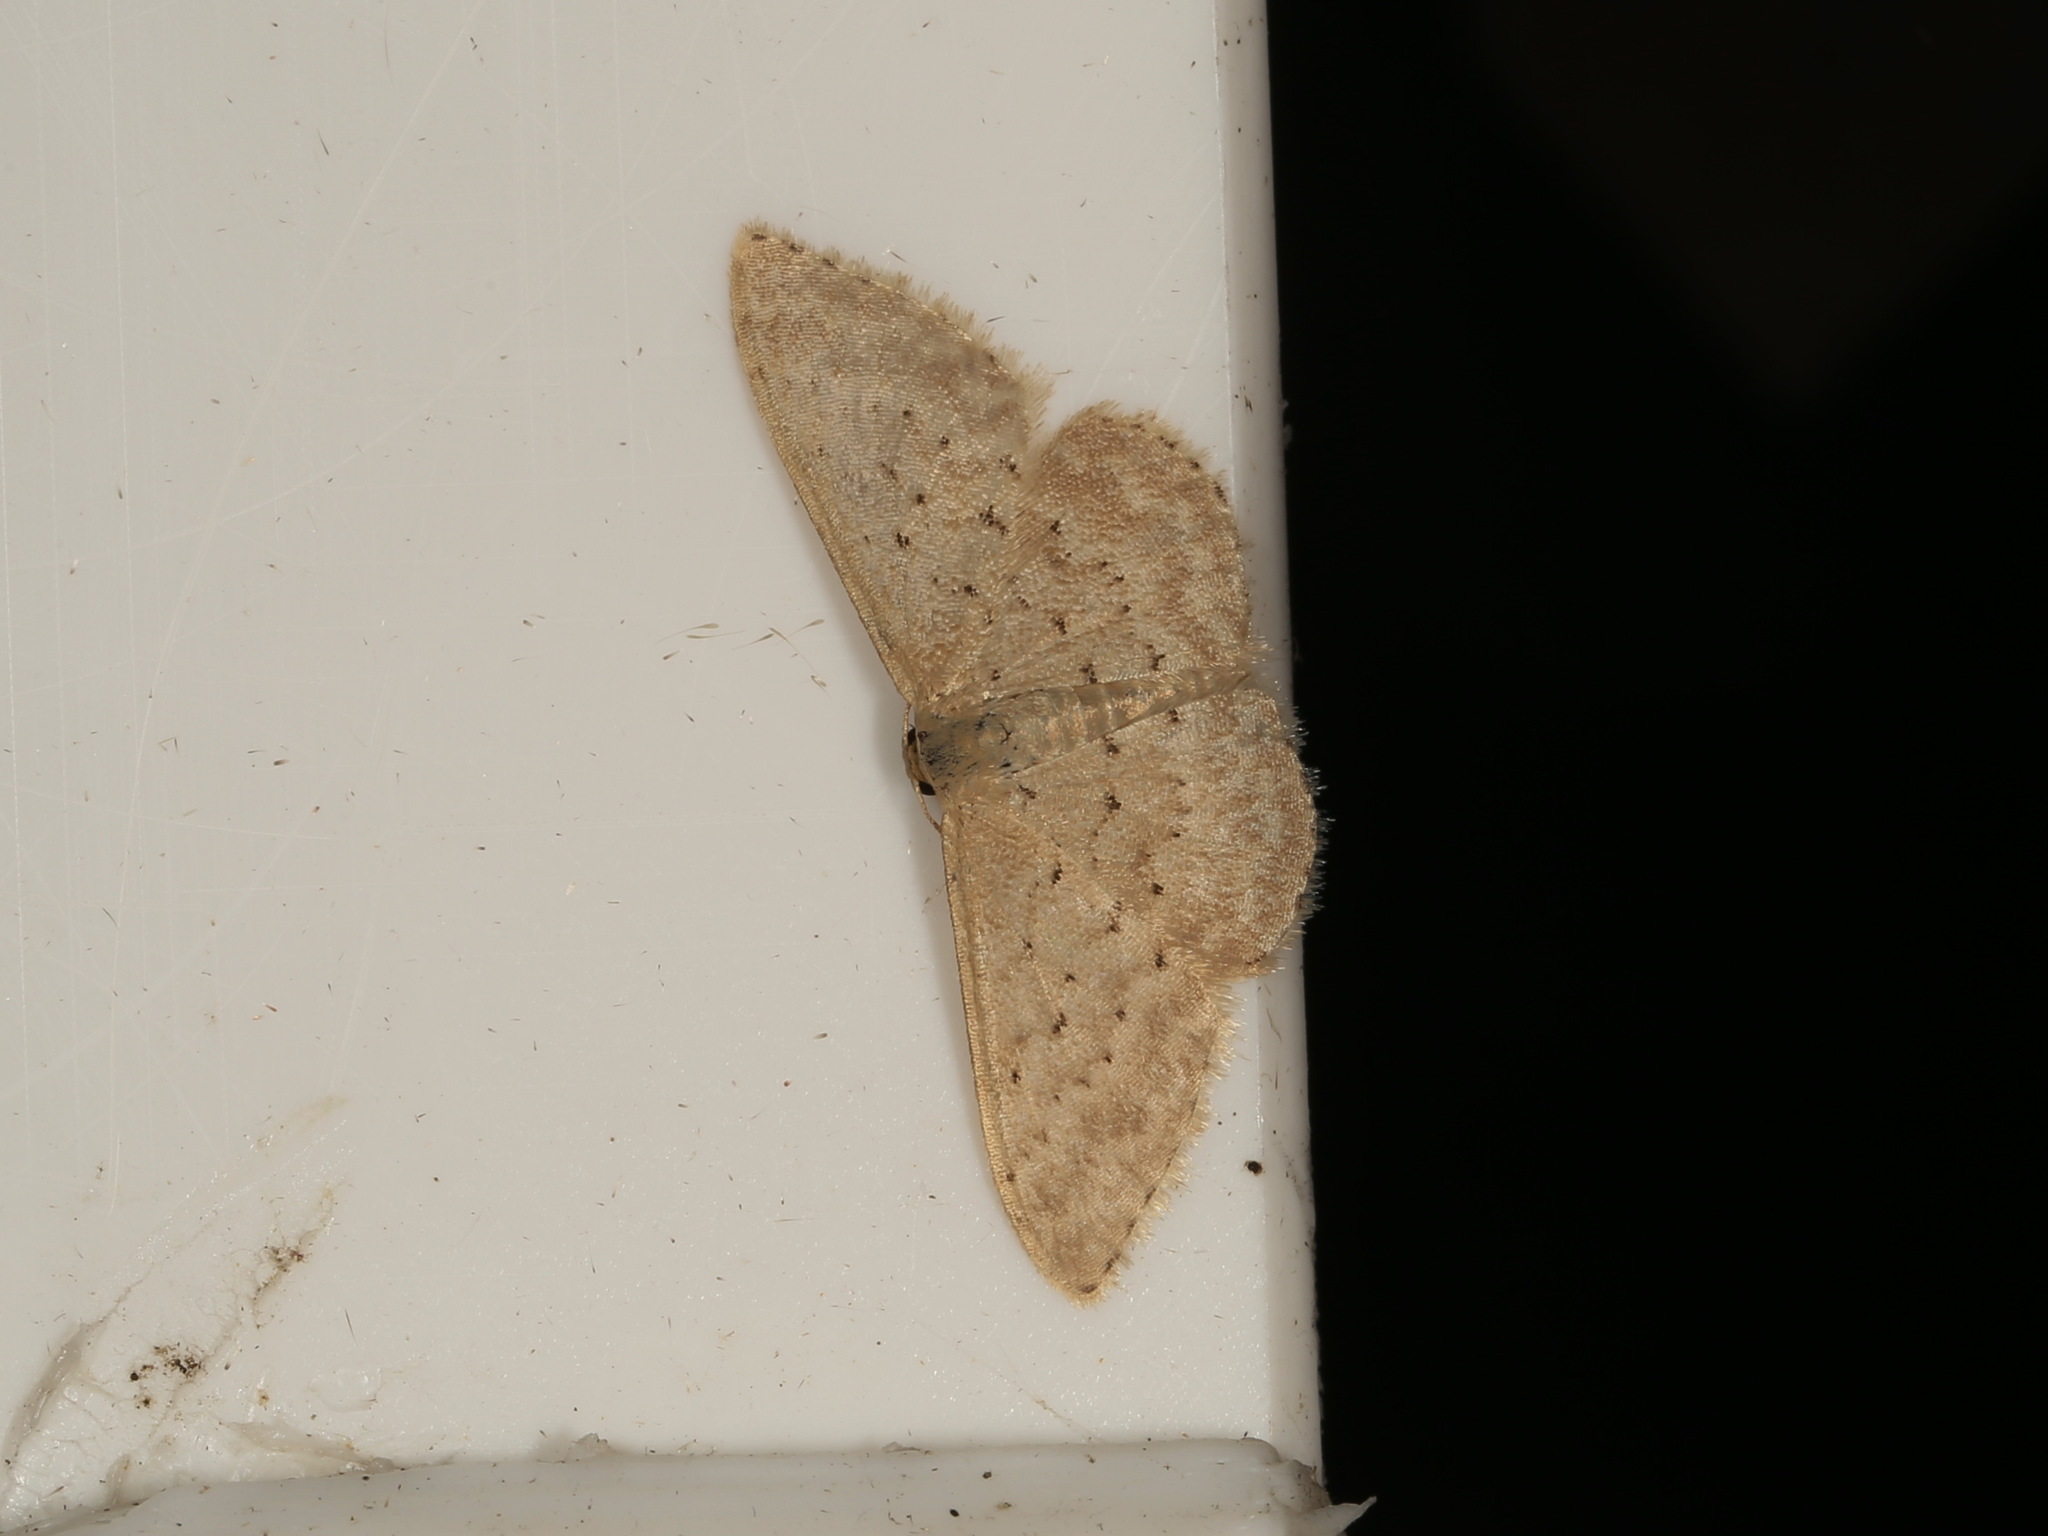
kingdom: Animalia
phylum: Arthropoda
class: Insecta
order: Lepidoptera
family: Geometridae
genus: Idaea
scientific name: Idaea philocosma
